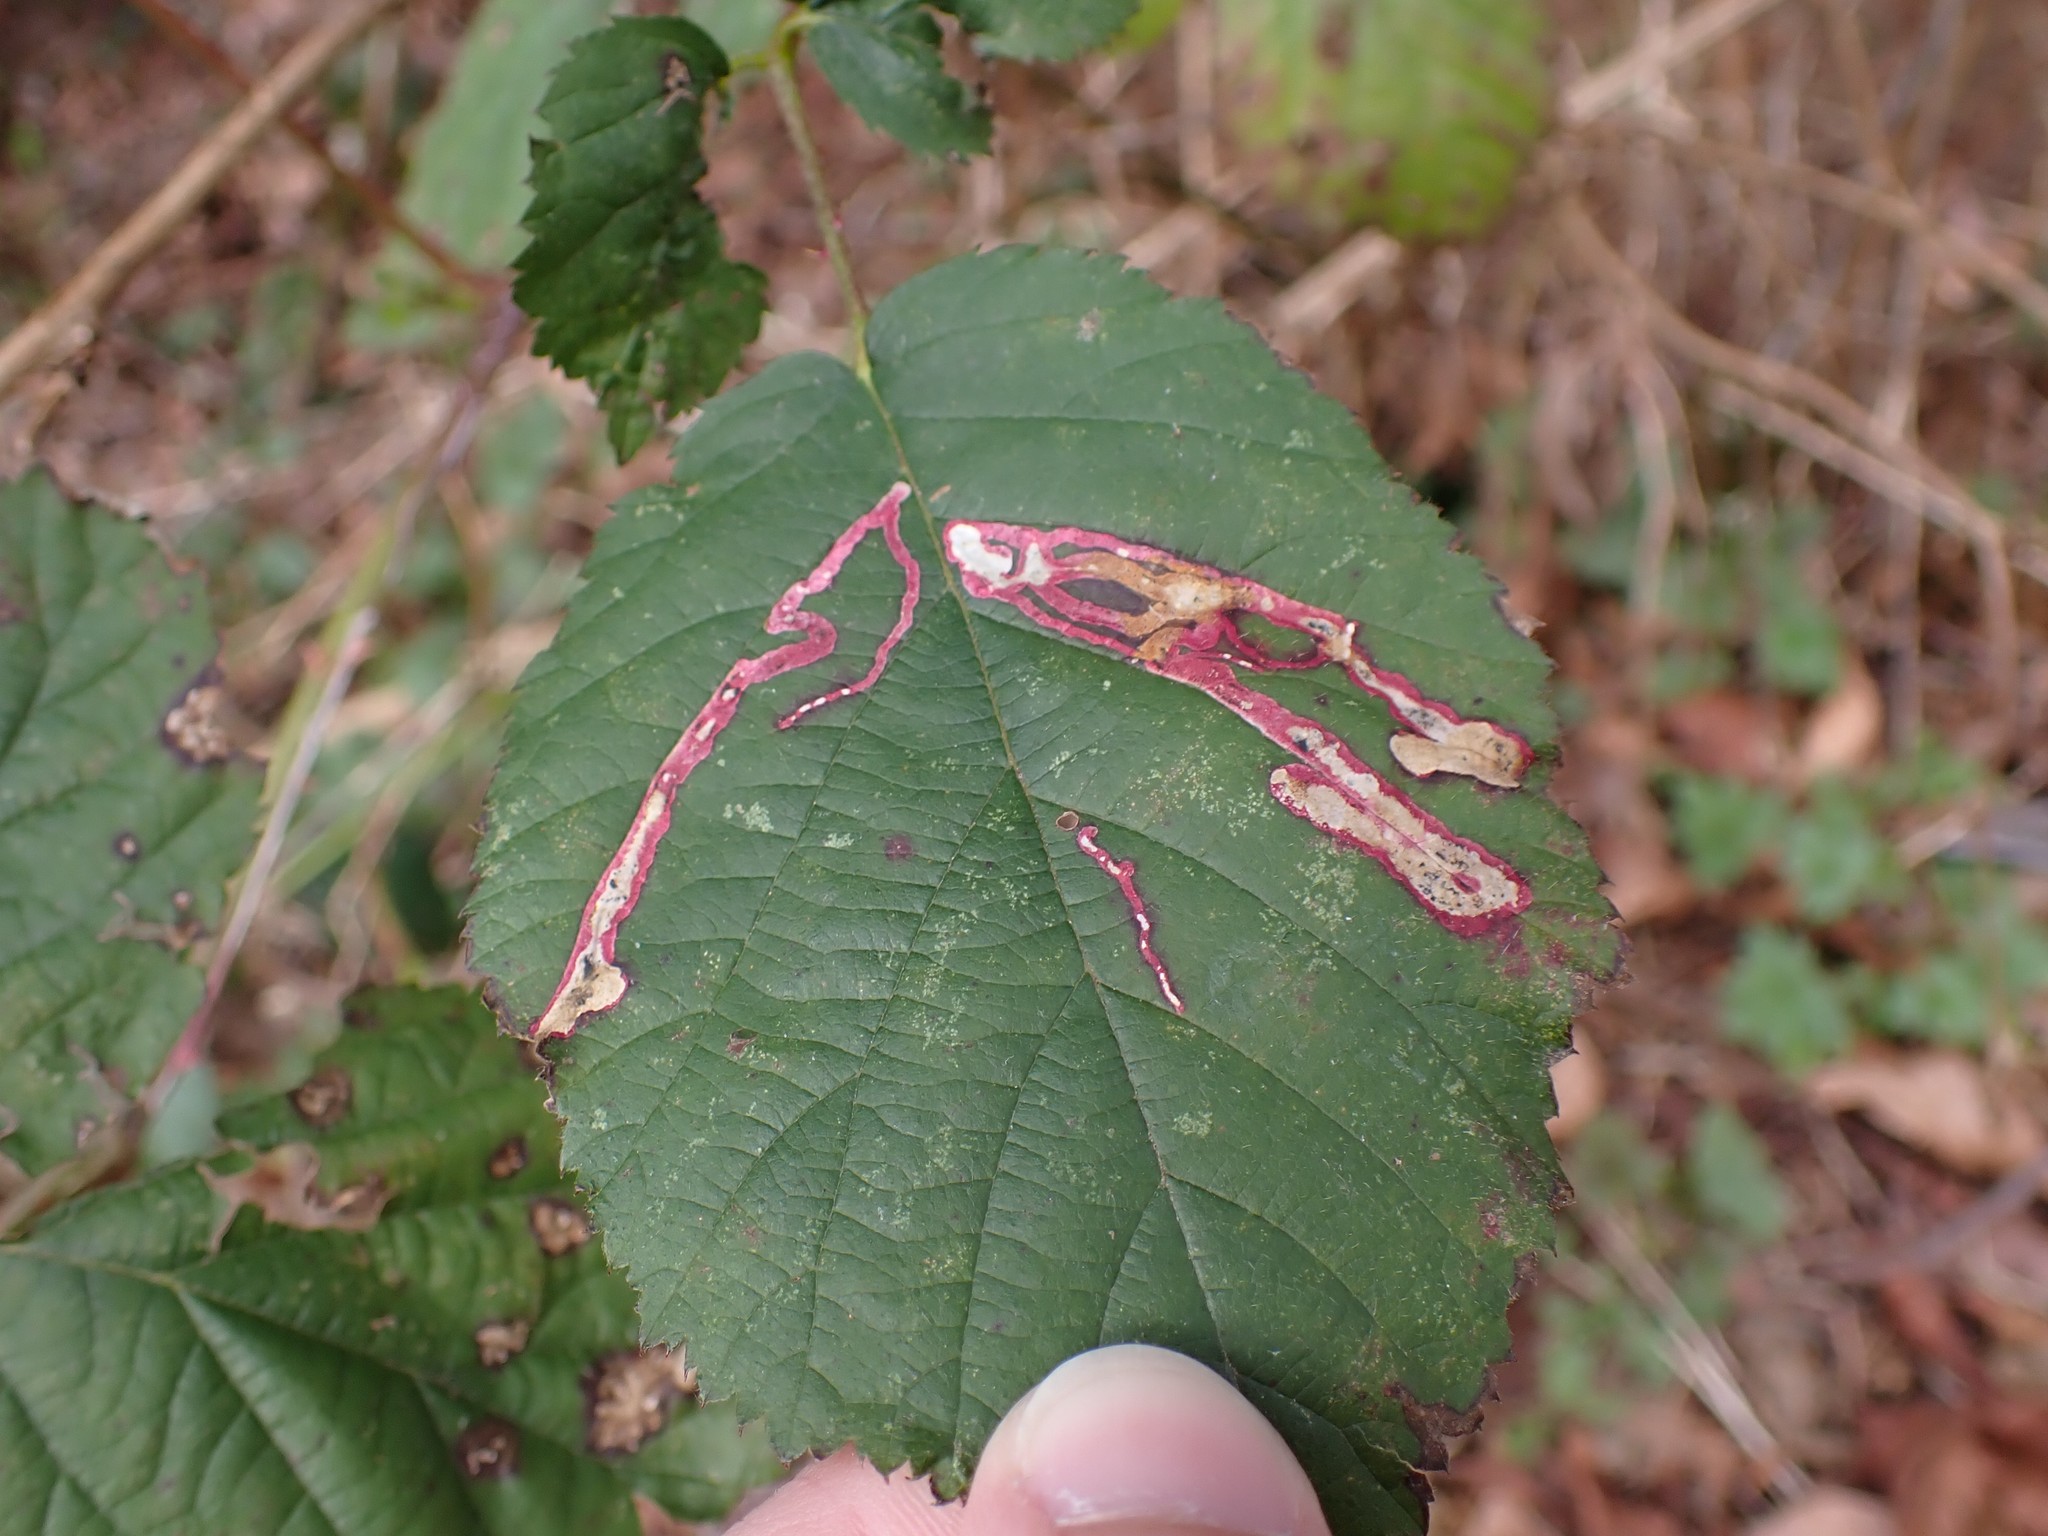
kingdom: Animalia
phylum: Arthropoda
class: Insecta
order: Diptera
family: Agromyzidae
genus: Agromyza
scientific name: Agromyza vockerothi
